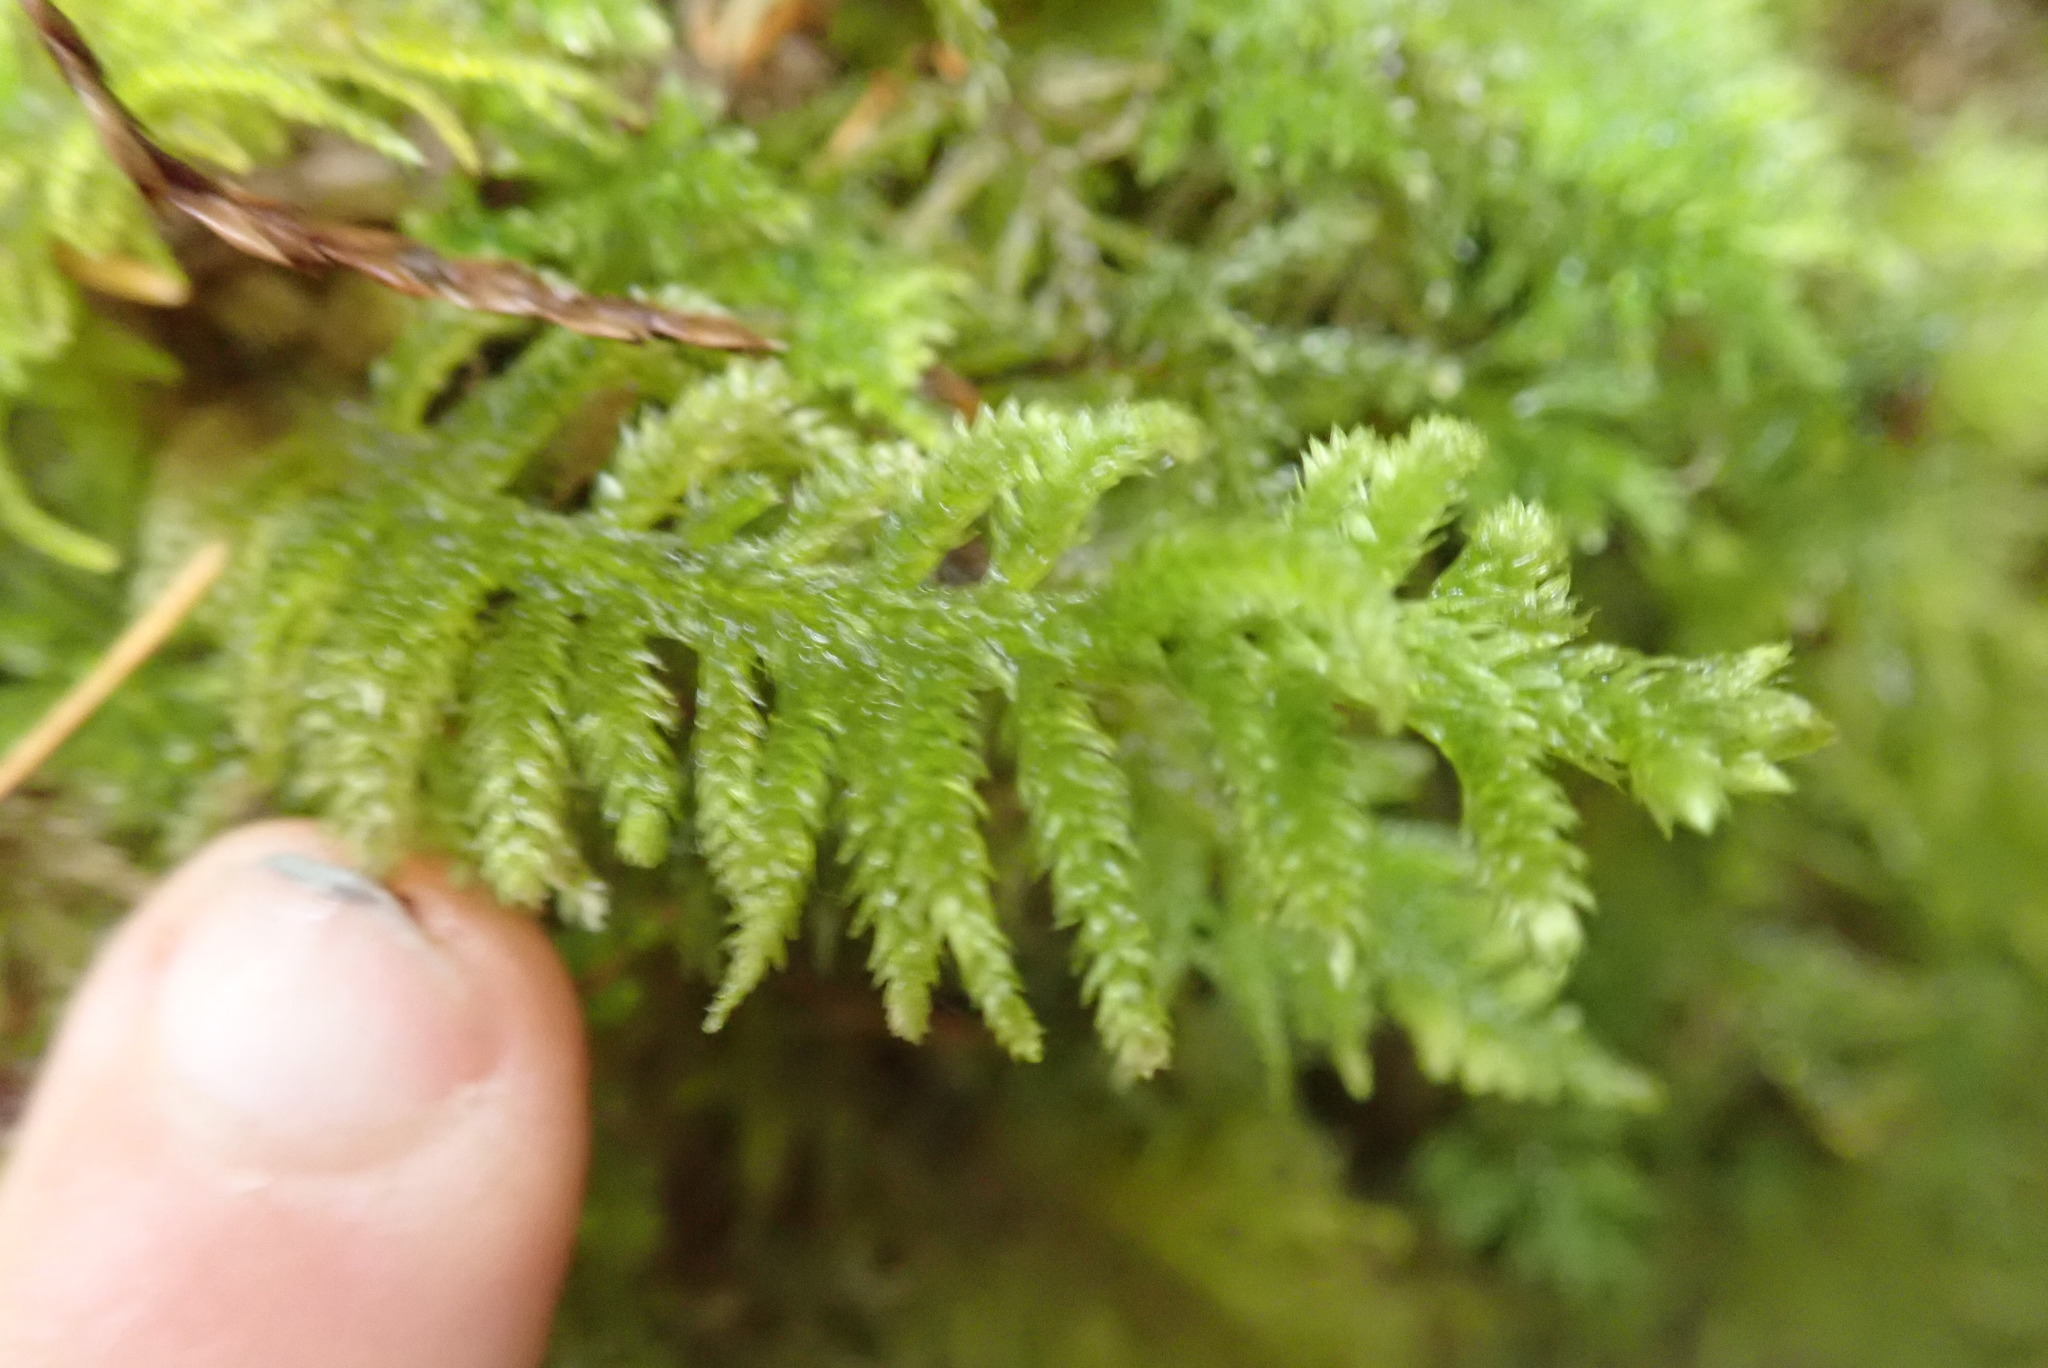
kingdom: Plantae
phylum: Bryophyta
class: Bryopsida
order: Hypnales
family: Brachytheciaceae
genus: Homalothecium
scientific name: Homalothecium megaptilum
